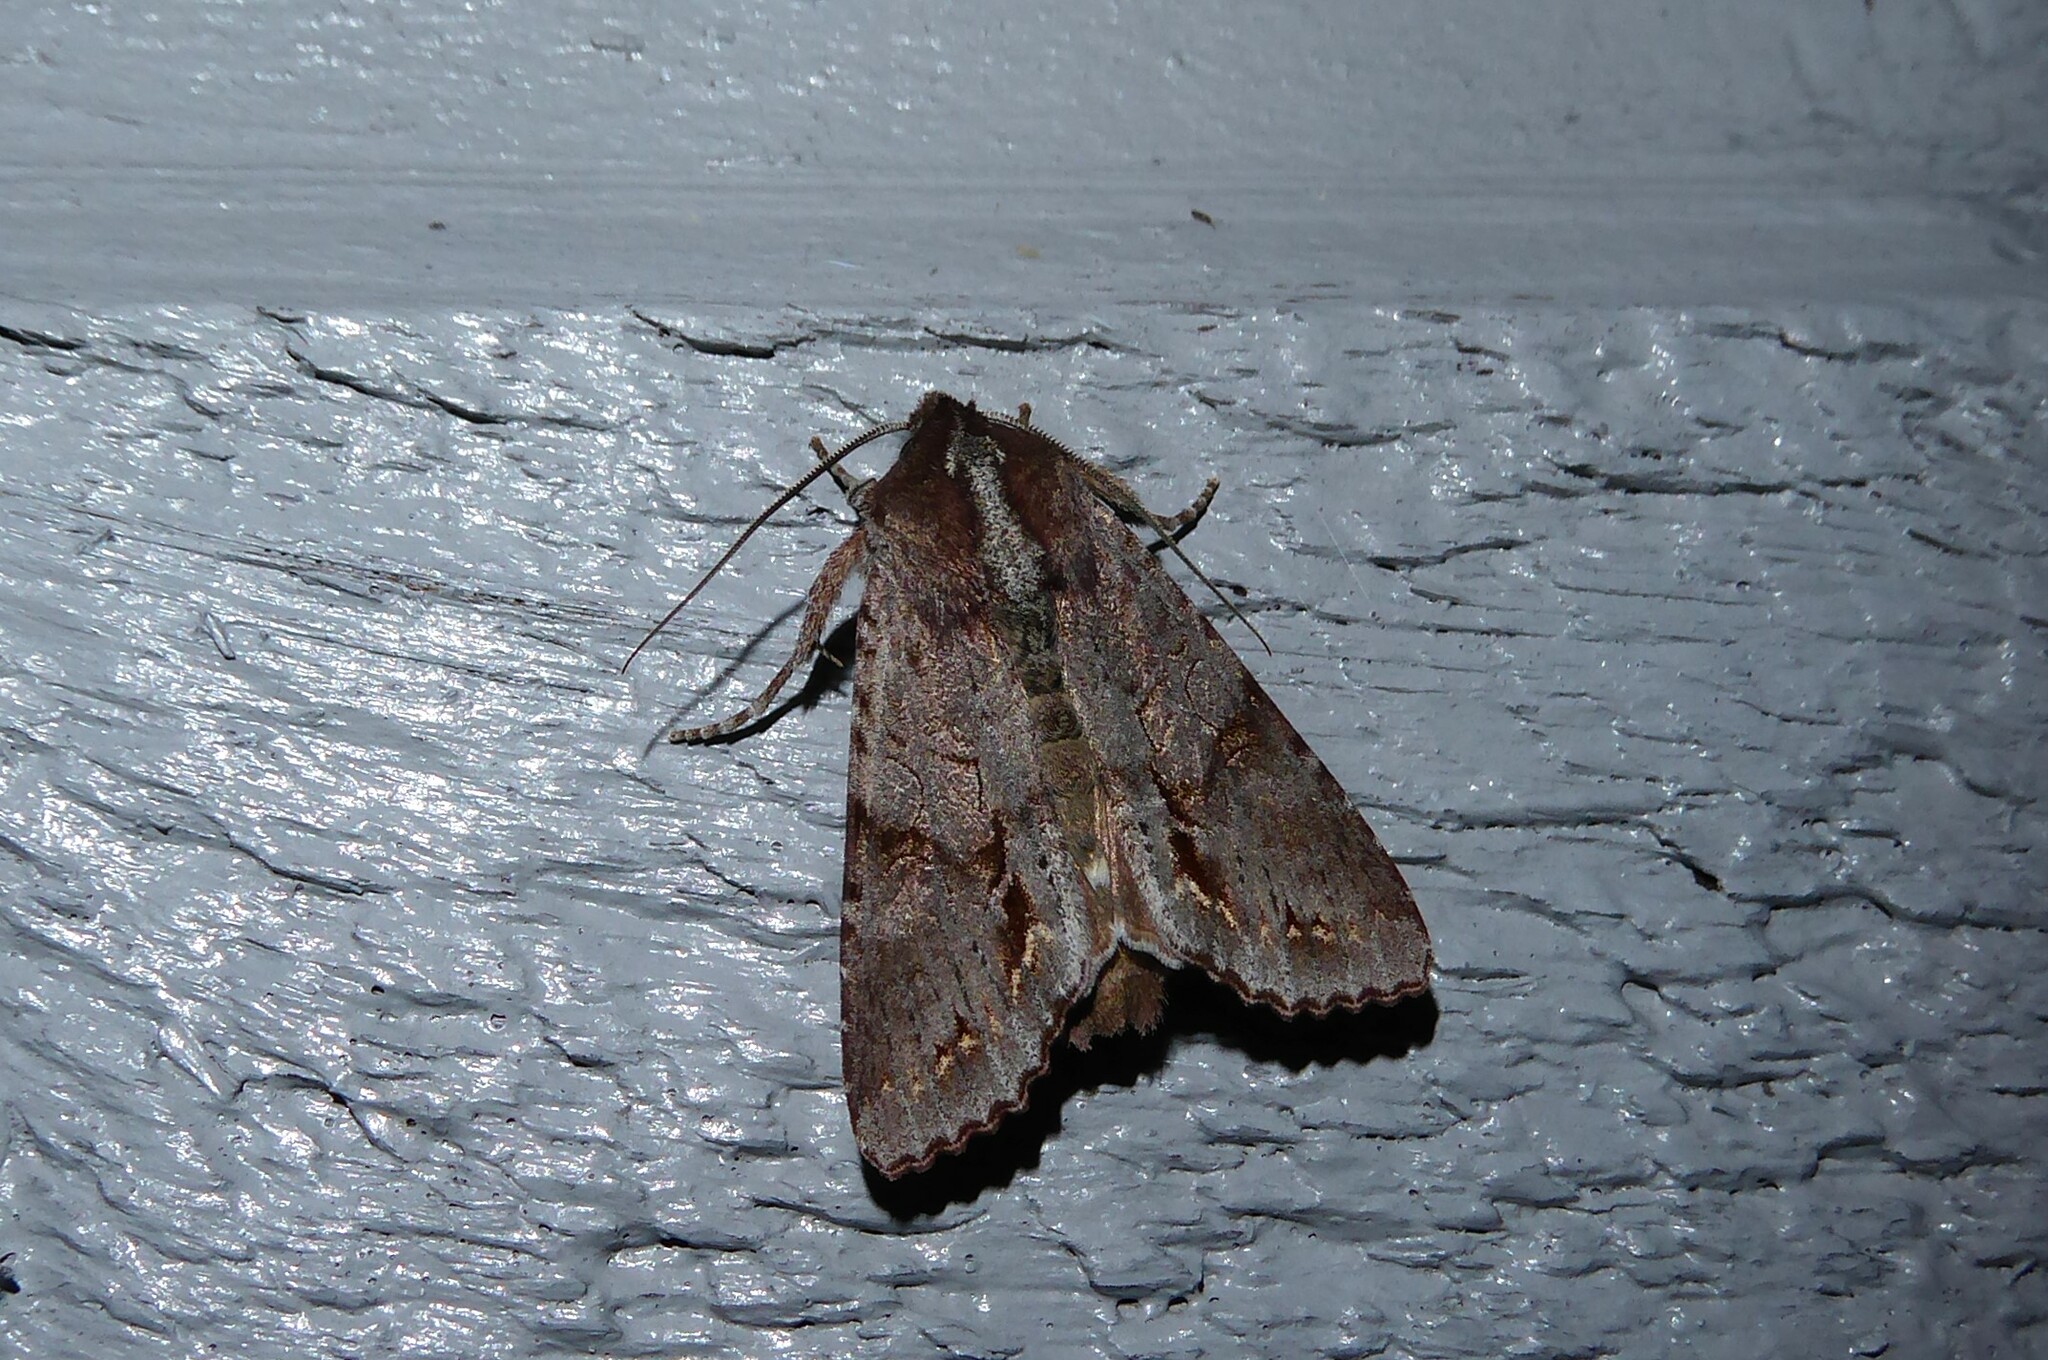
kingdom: Animalia
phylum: Arthropoda
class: Insecta
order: Lepidoptera
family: Noctuidae
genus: Ichneutica
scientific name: Ichneutica
